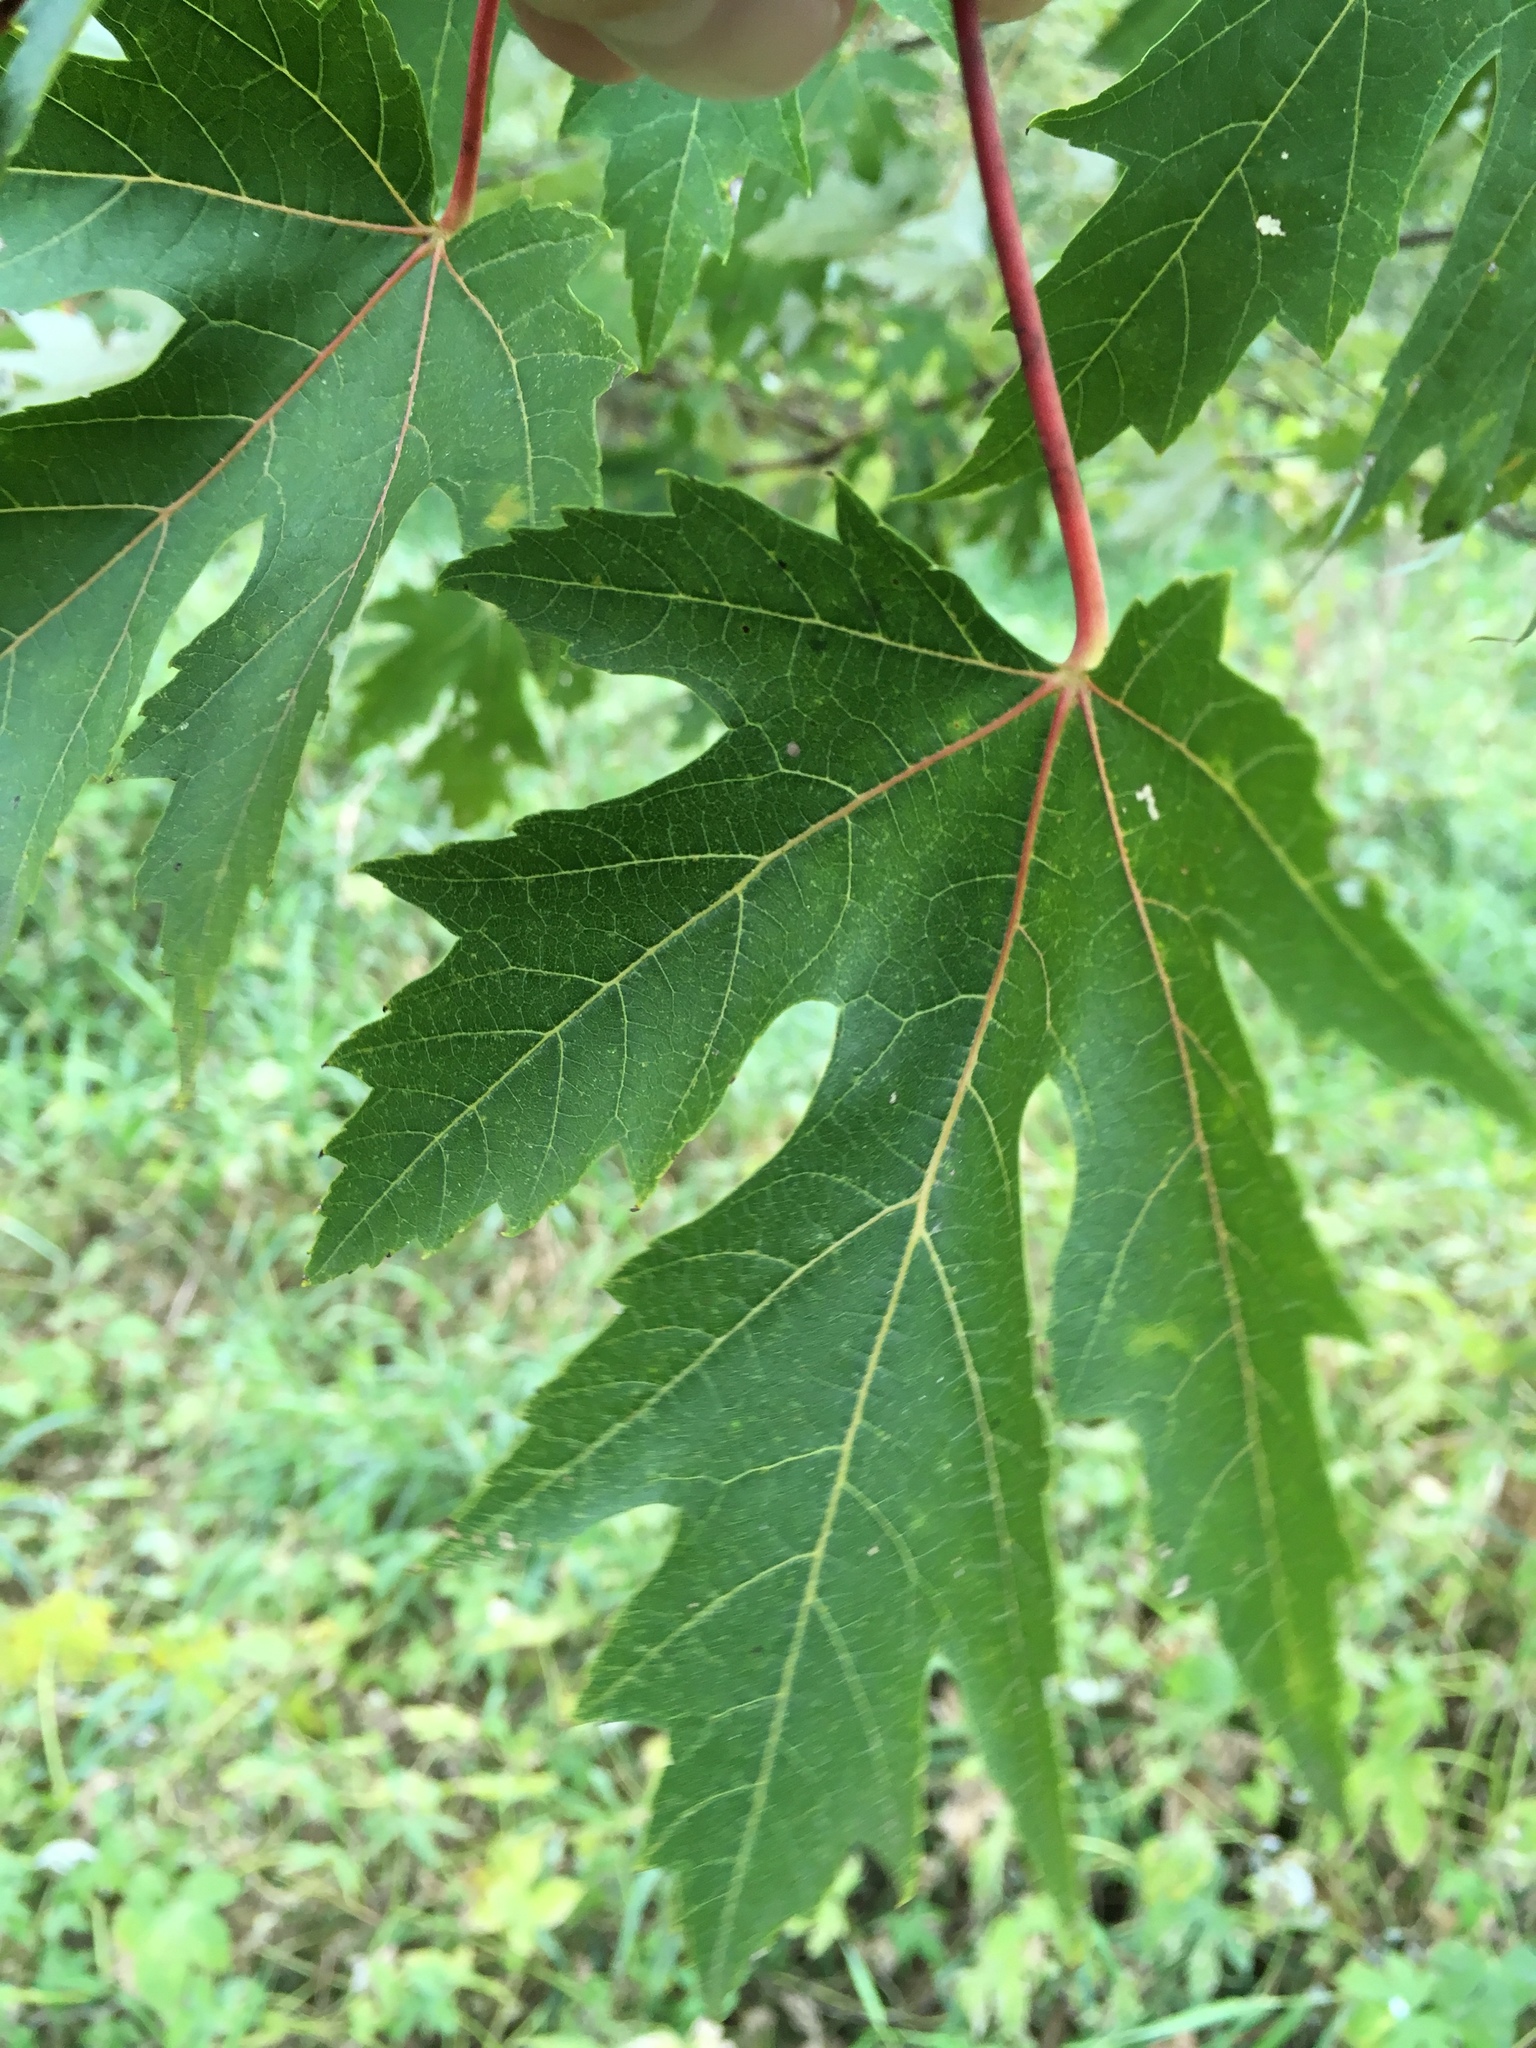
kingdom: Plantae
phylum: Tracheophyta
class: Magnoliopsida
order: Sapindales
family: Sapindaceae
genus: Acer
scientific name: Acer saccharinum
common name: Silver maple
